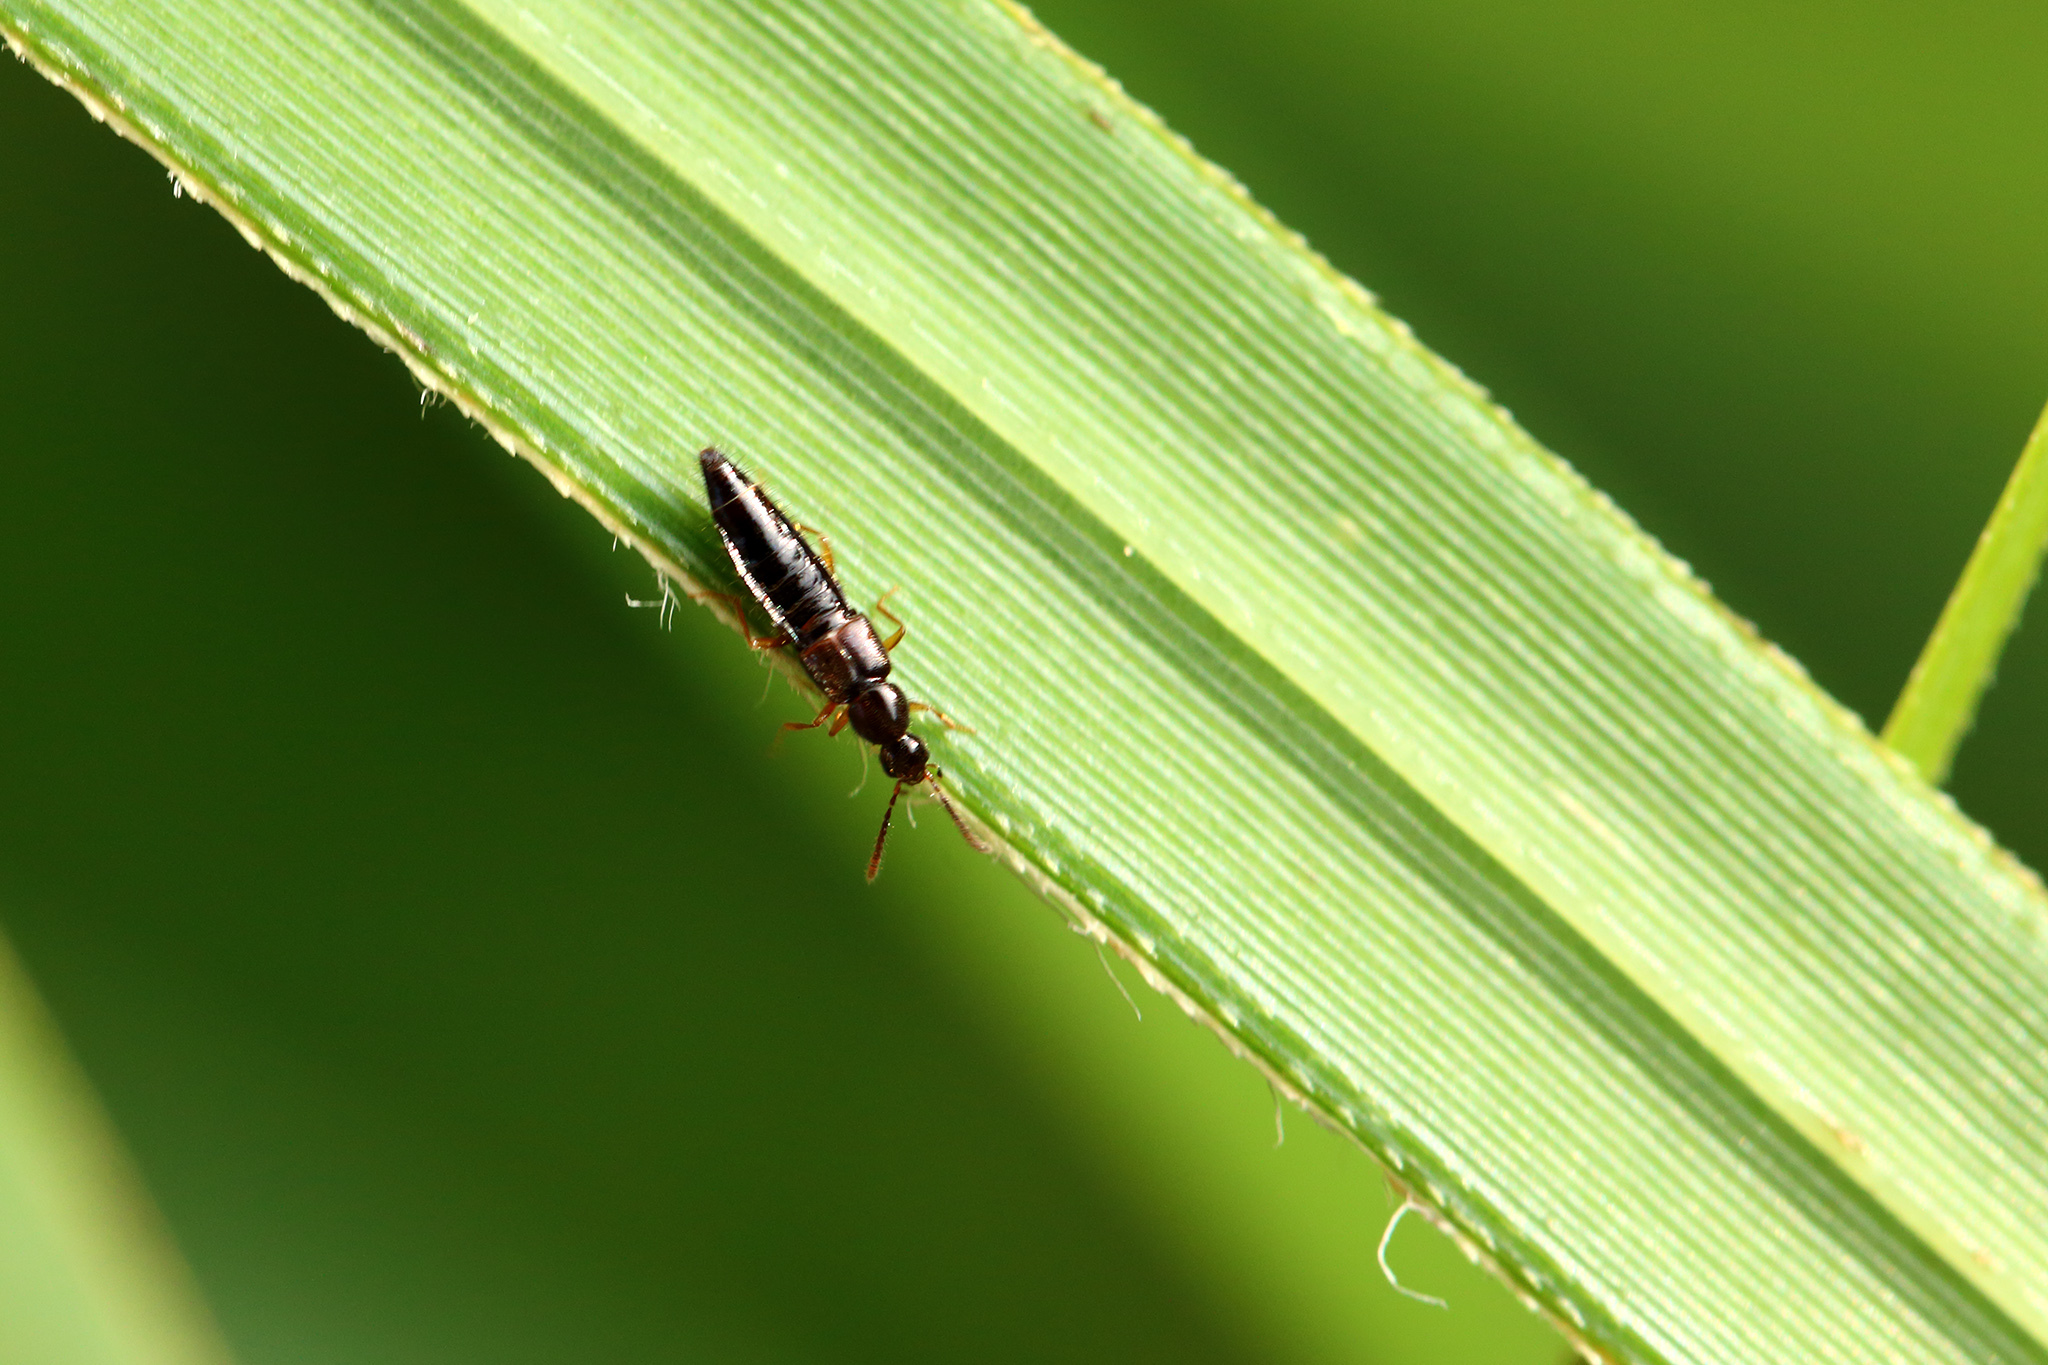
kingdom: Animalia
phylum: Arthropoda
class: Insecta
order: Coleoptera
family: Staphylinidae
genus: Ocalea
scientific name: Ocalea badia
